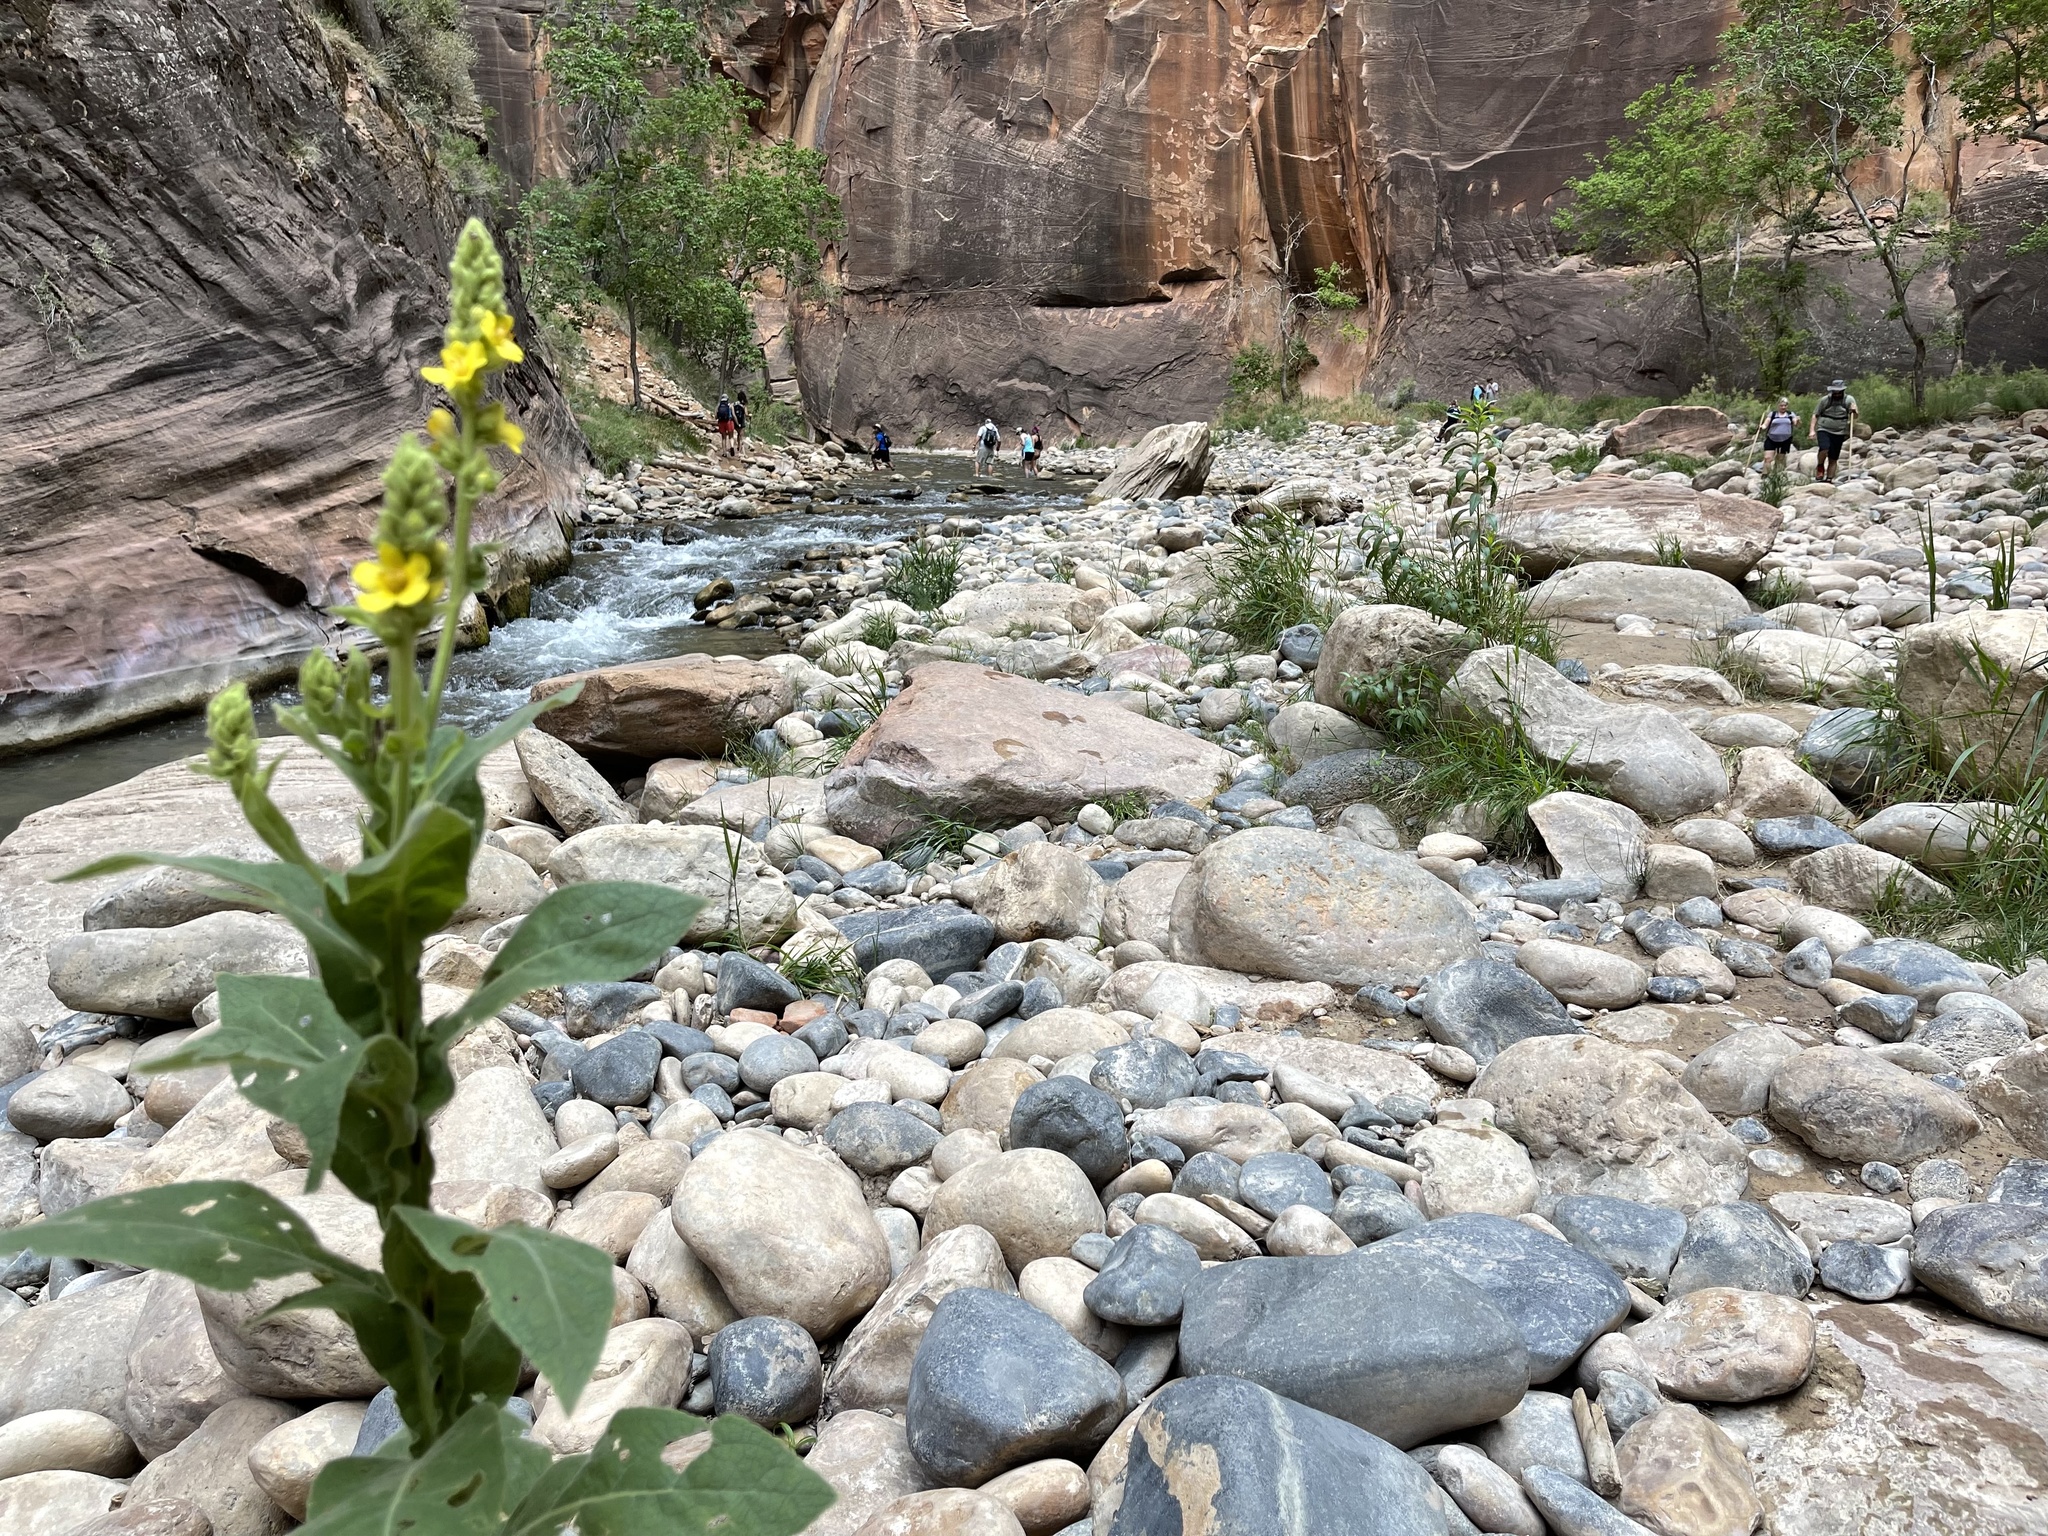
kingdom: Plantae
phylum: Tracheophyta
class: Magnoliopsida
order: Lamiales
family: Scrophulariaceae
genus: Verbascum
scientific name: Verbascum thapsus
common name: Common mullein
